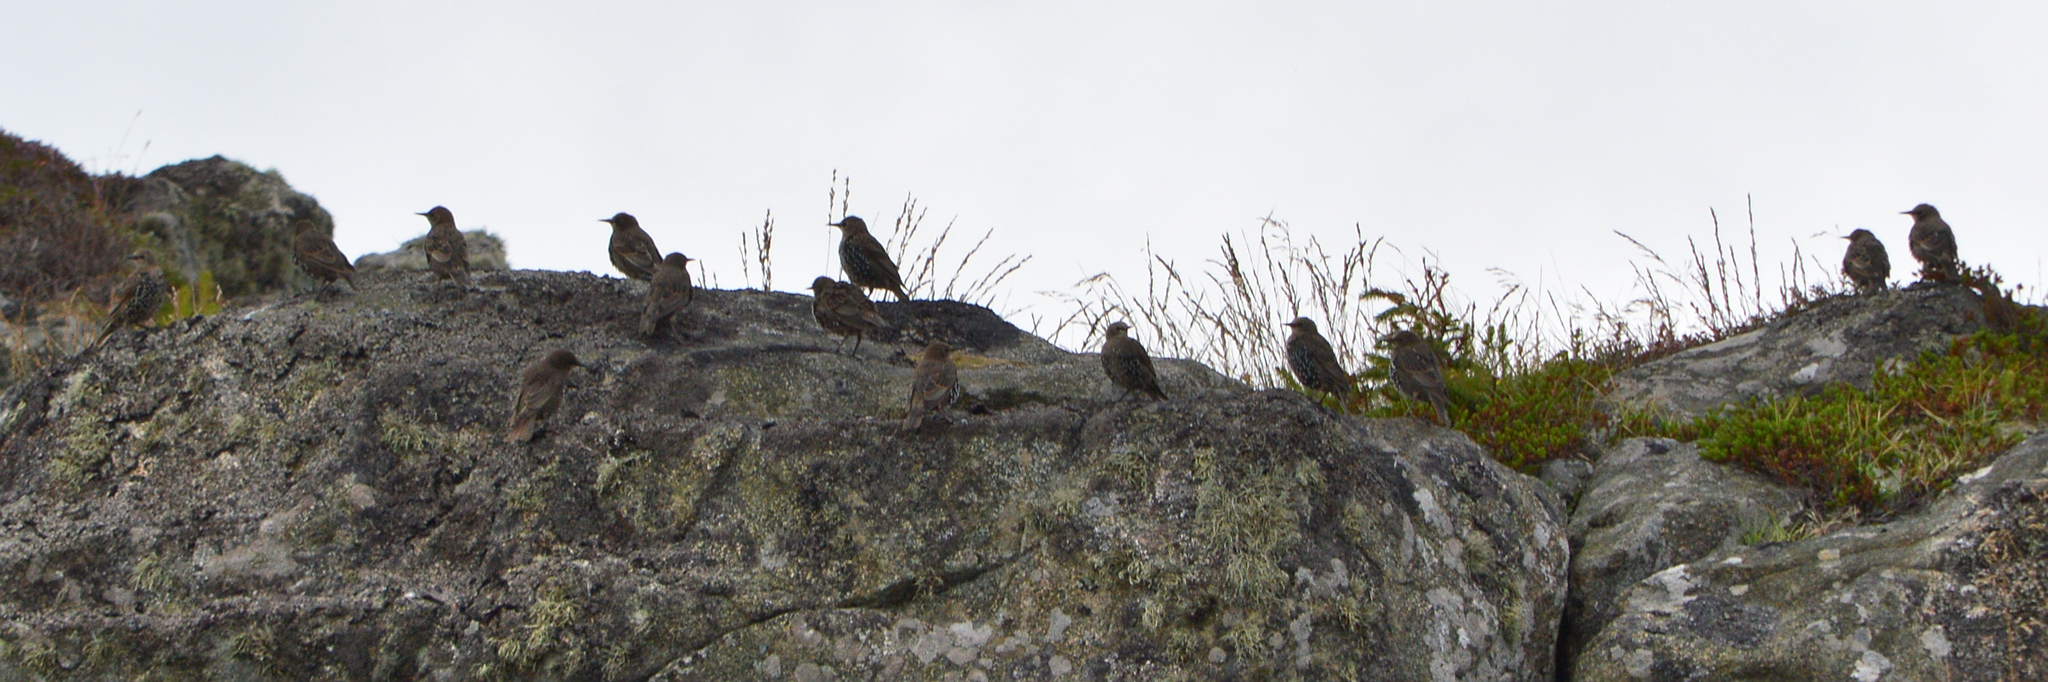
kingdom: Animalia
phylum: Chordata
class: Aves
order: Passeriformes
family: Sturnidae
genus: Sturnus
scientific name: Sturnus vulgaris
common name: Common starling
